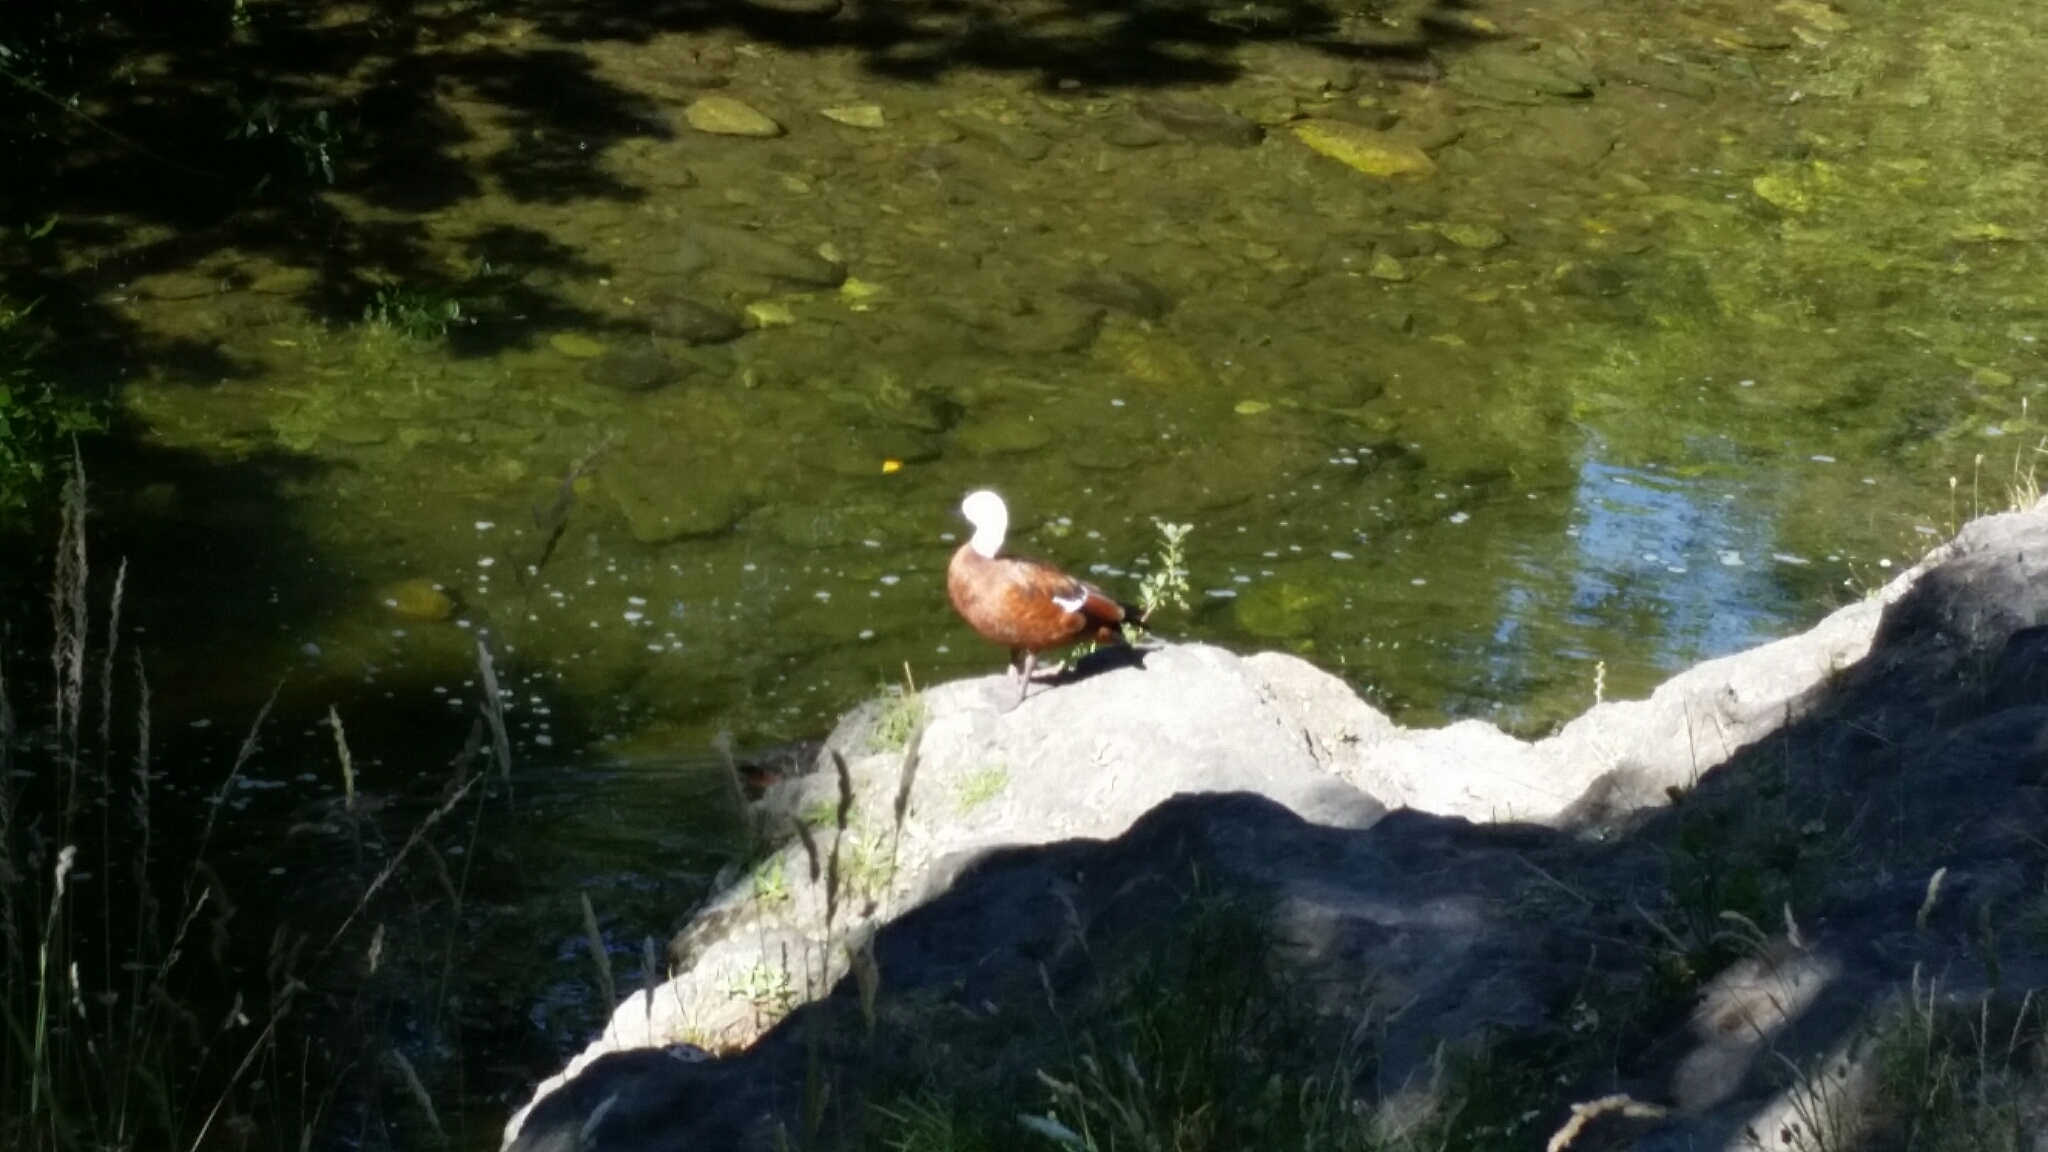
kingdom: Animalia
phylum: Chordata
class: Aves
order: Anseriformes
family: Anatidae
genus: Tadorna
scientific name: Tadorna variegata
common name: Paradise shelduck
